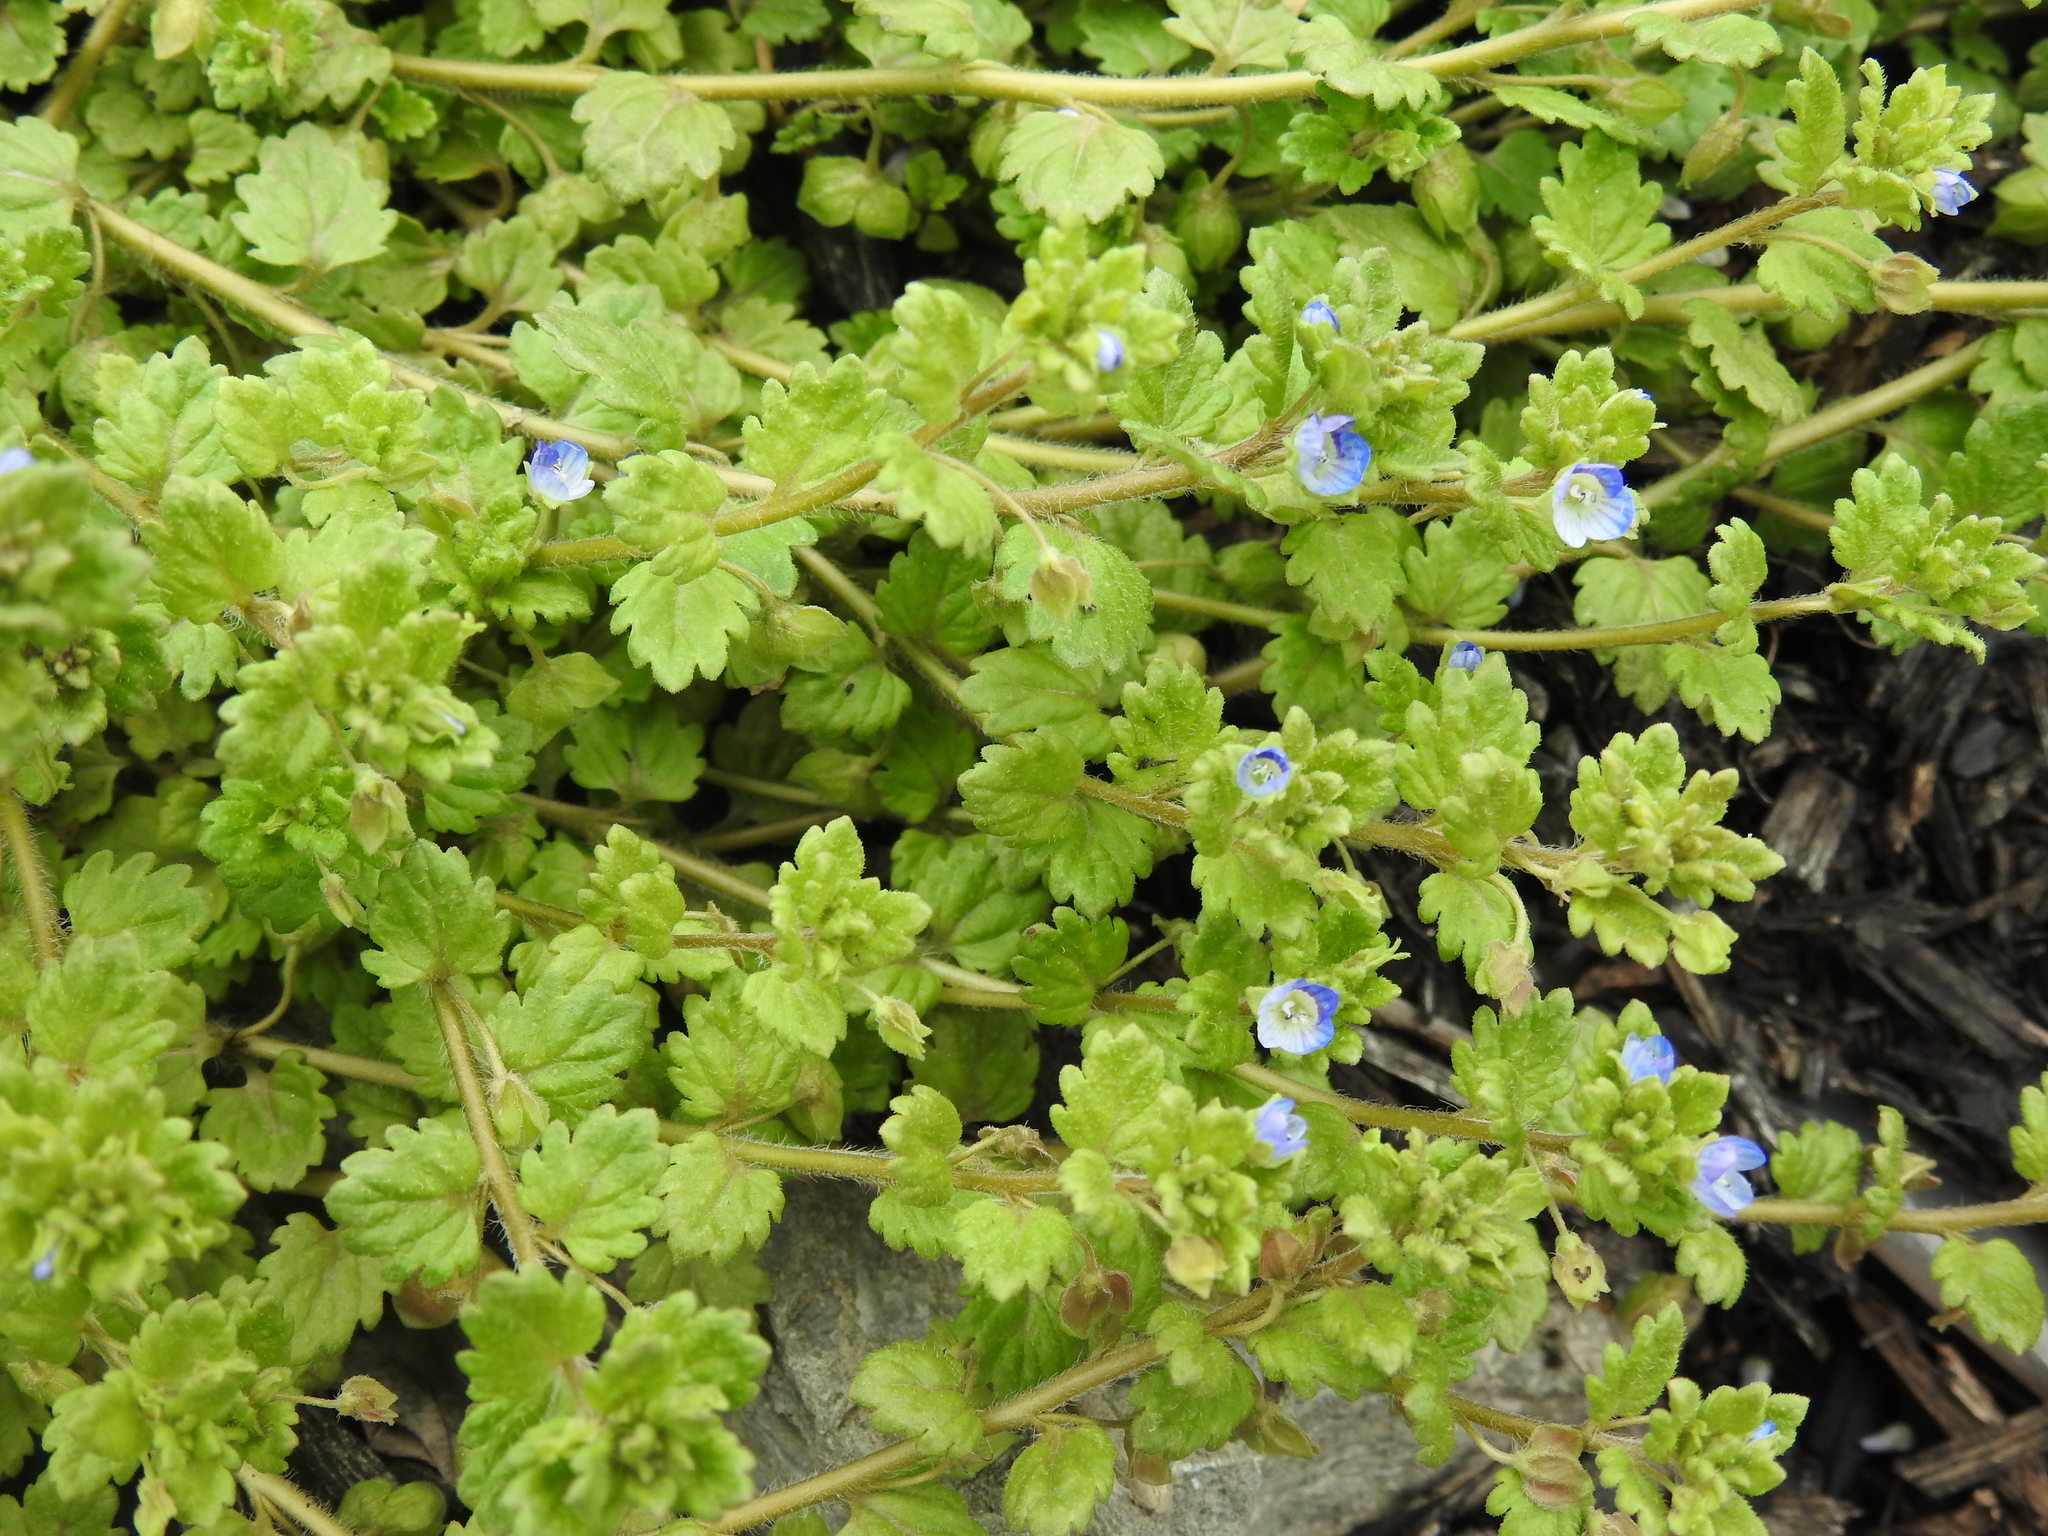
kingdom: Plantae
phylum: Tracheophyta
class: Magnoliopsida
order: Lamiales
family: Plantaginaceae
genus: Veronica
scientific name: Veronica polita
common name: Grey field-speedwell
